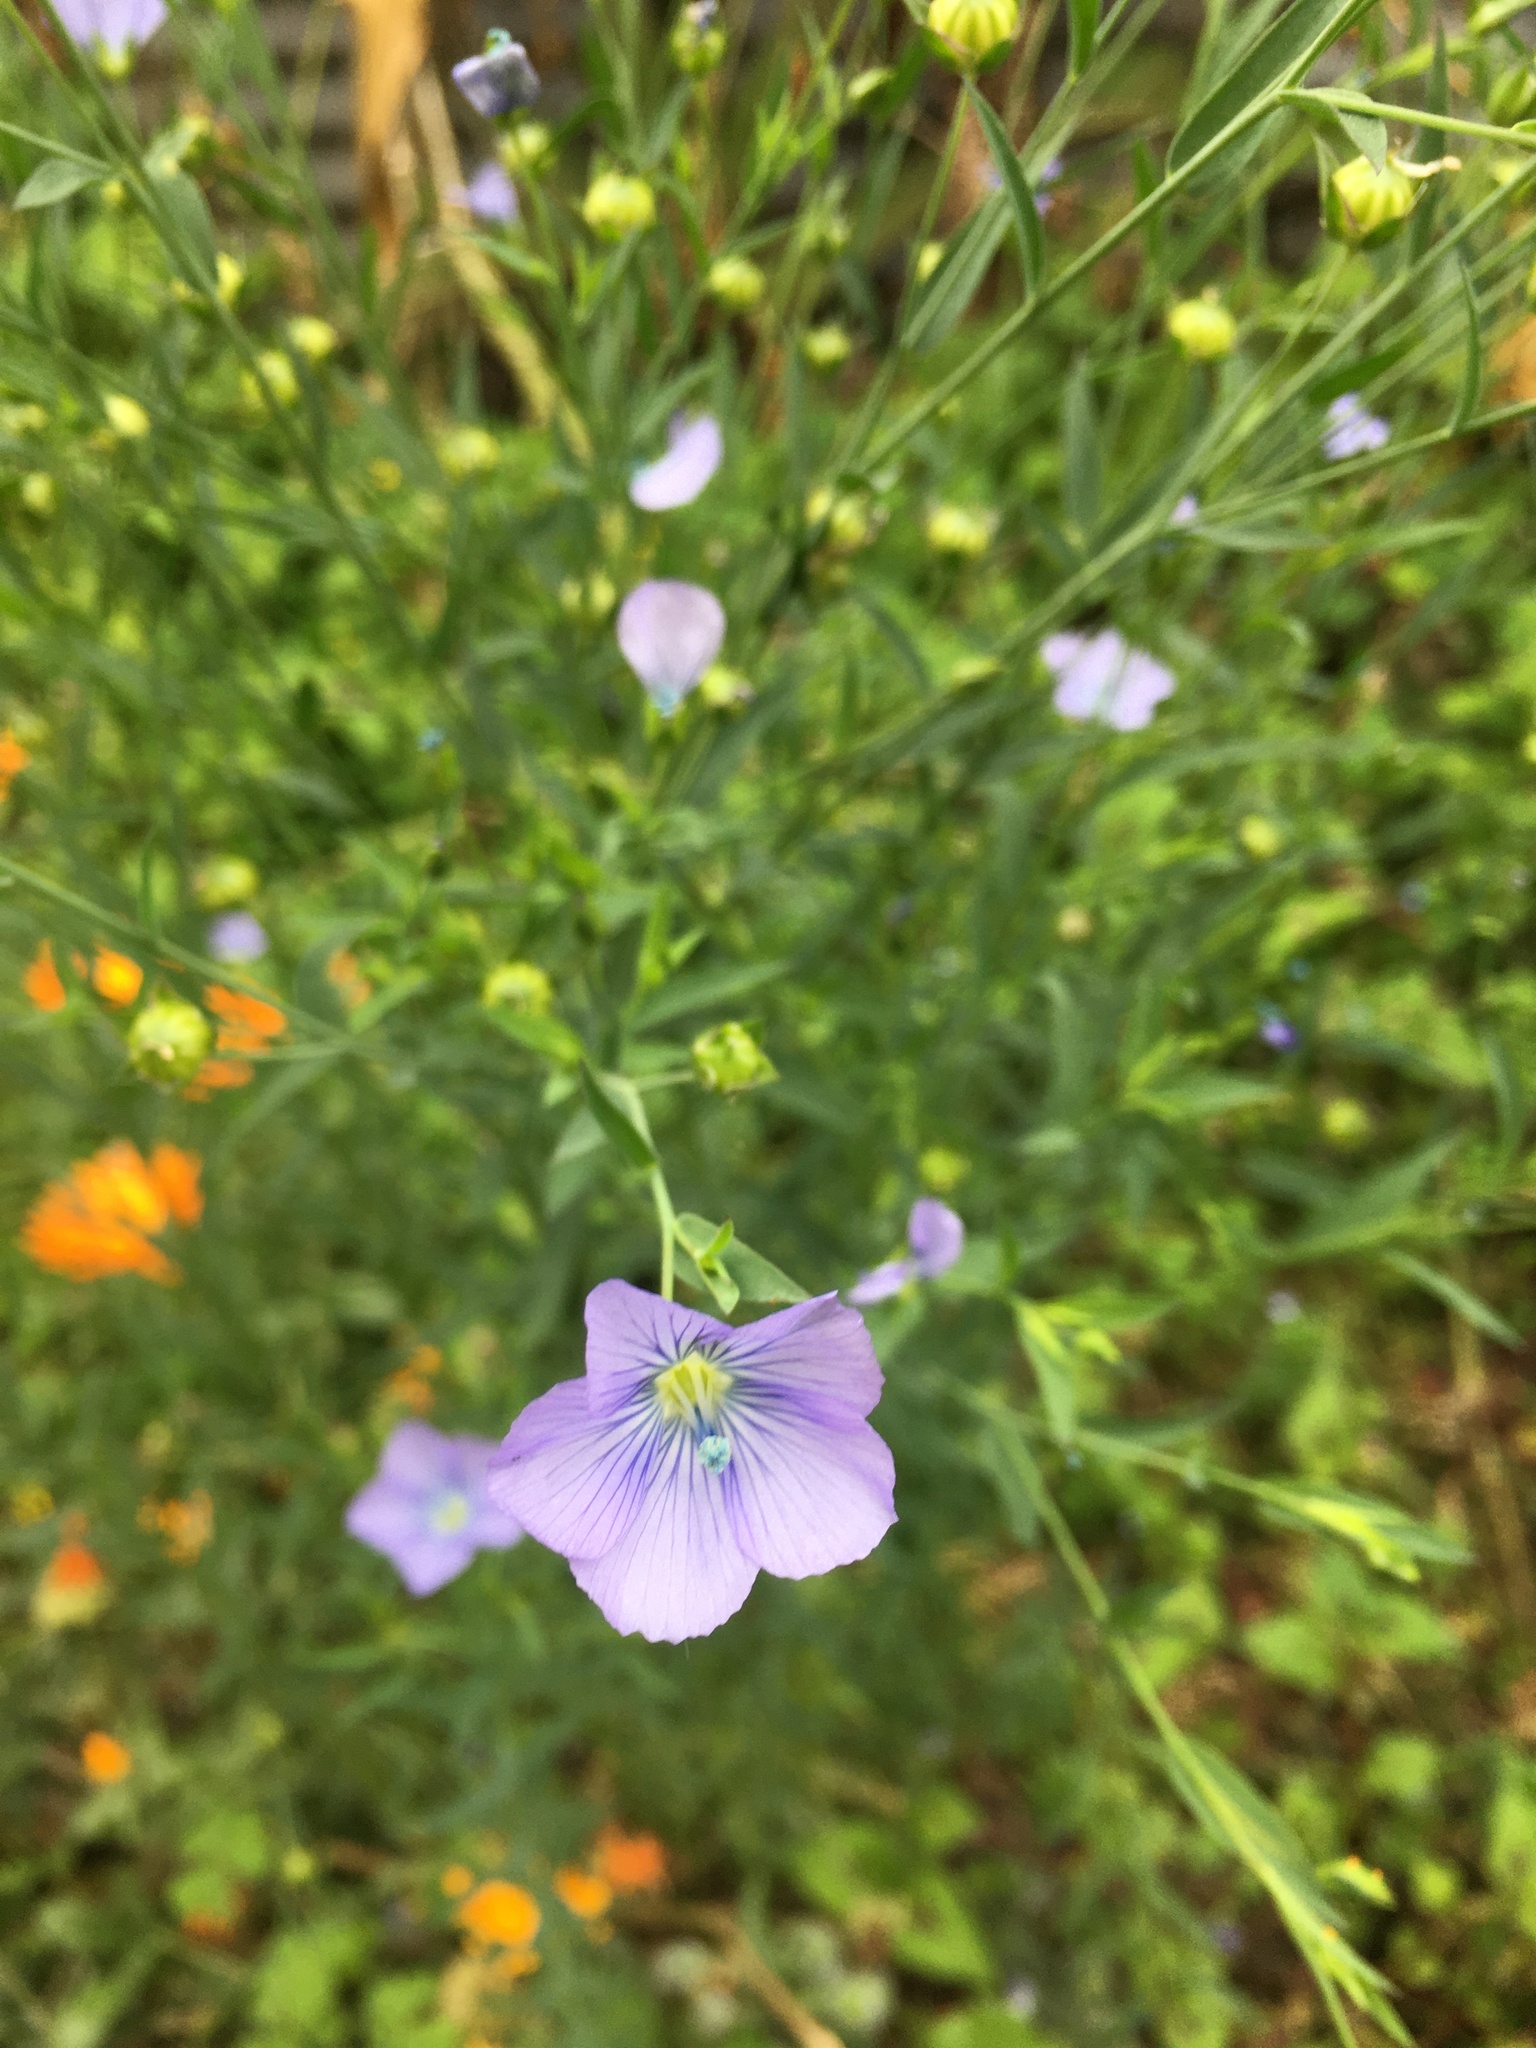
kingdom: Plantae
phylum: Tracheophyta
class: Magnoliopsida
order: Malpighiales
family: Linaceae
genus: Linum
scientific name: Linum usitatissimum
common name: Flax
